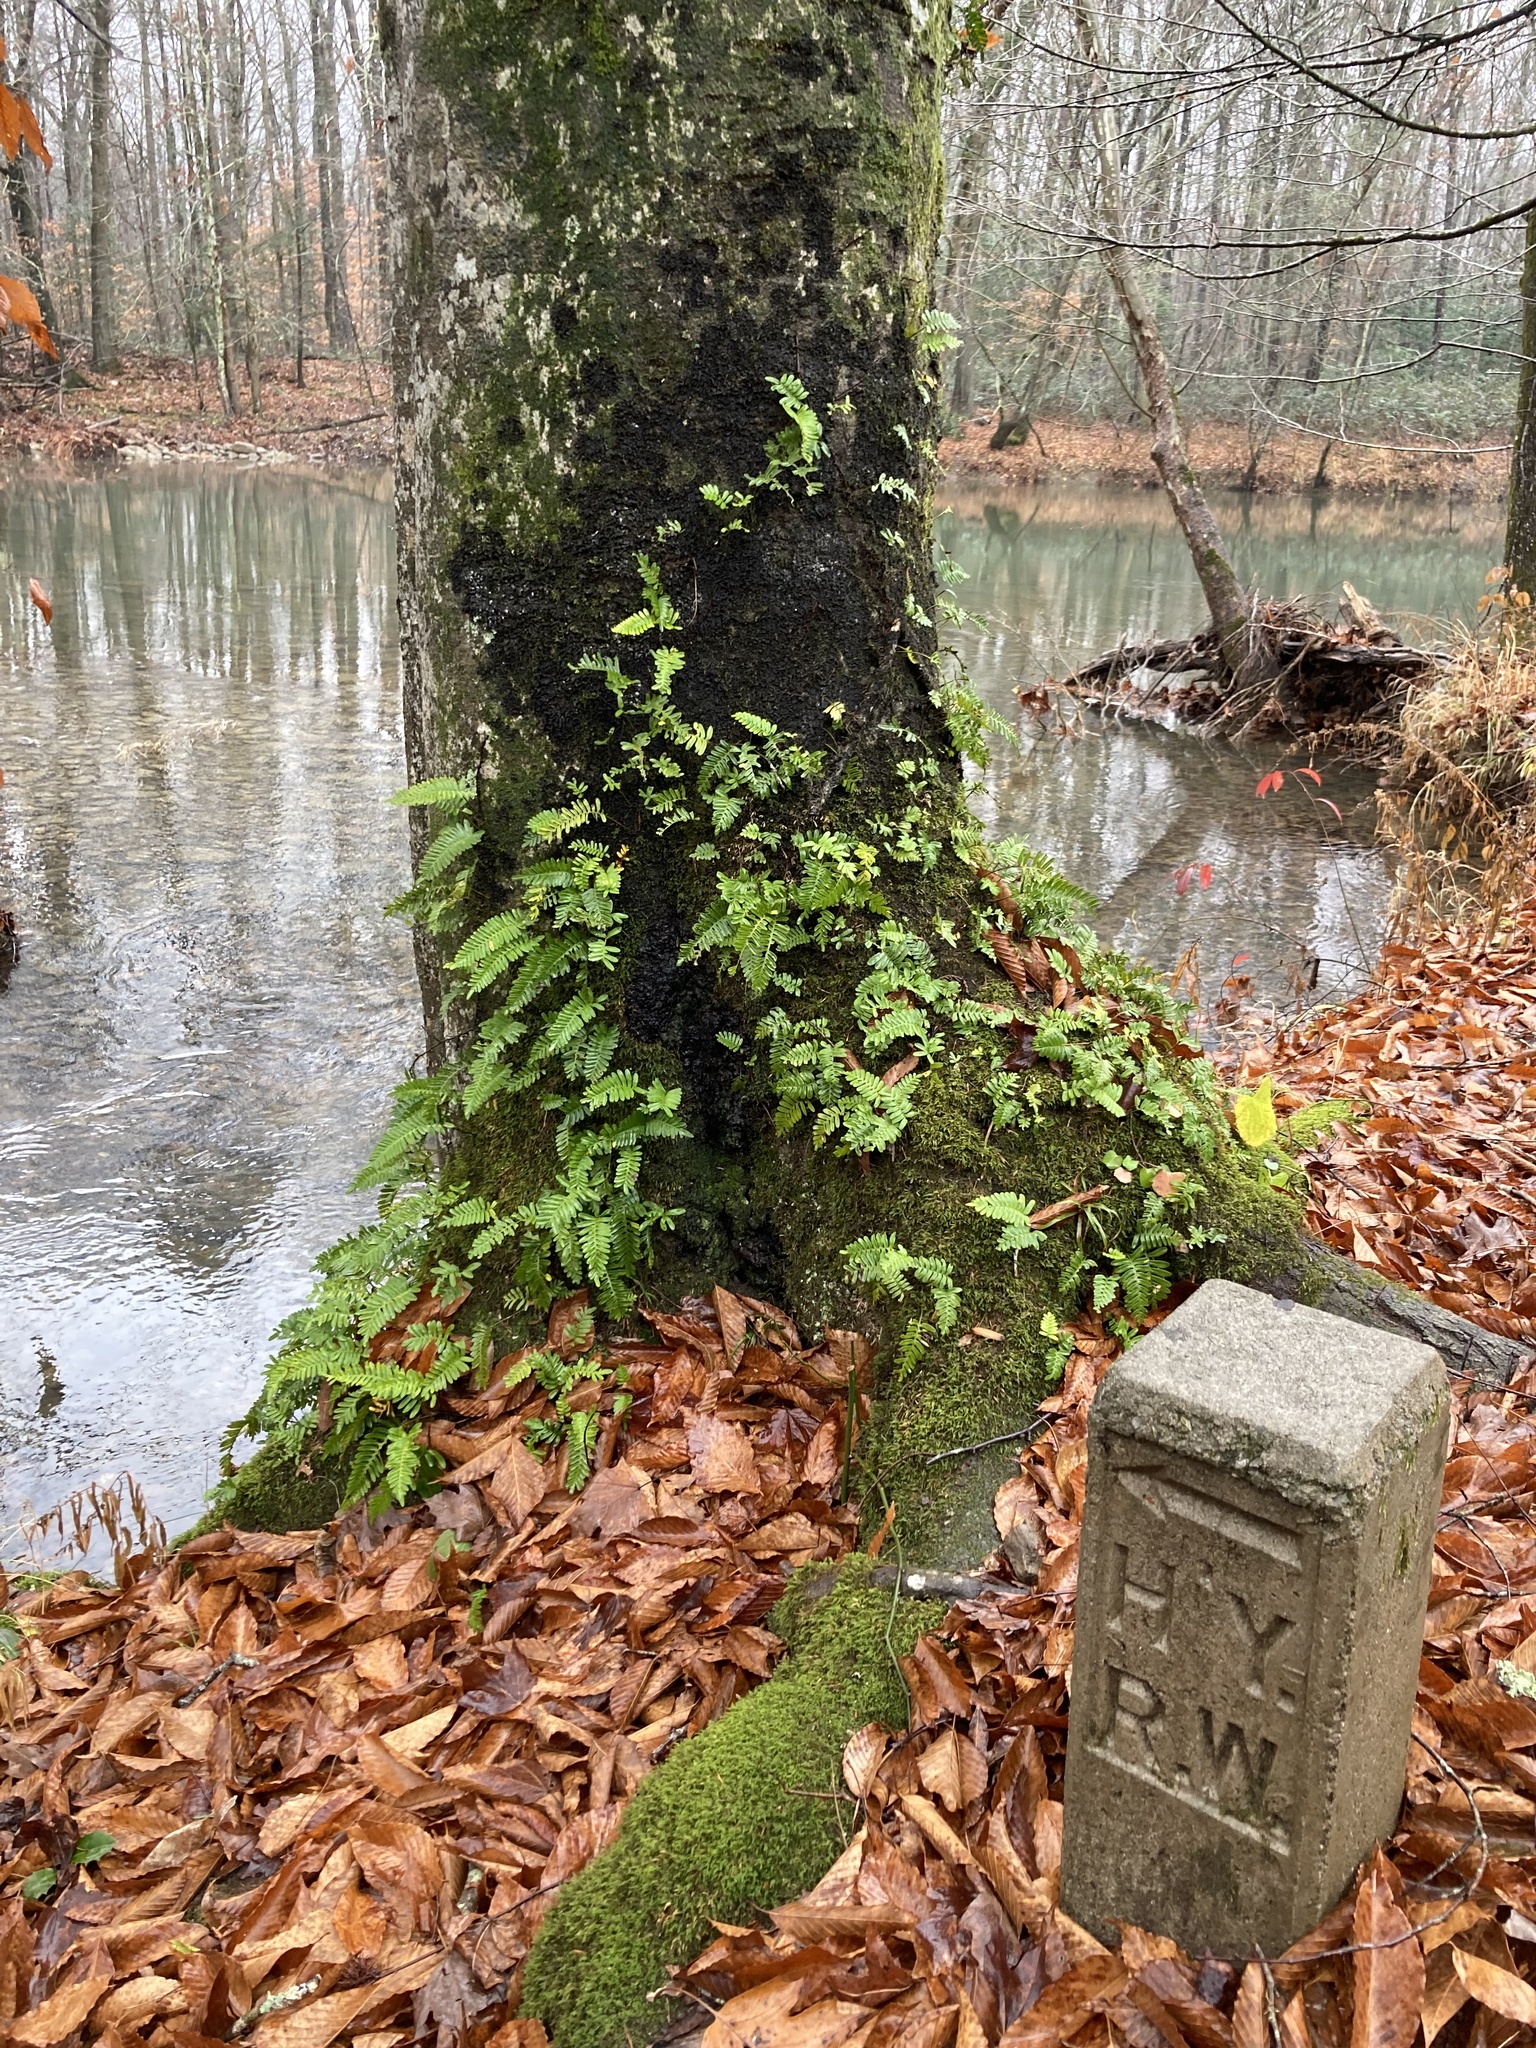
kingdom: Plantae
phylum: Tracheophyta
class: Polypodiopsida
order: Polypodiales
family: Polypodiaceae
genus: Pleopeltis
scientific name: Pleopeltis michauxiana
